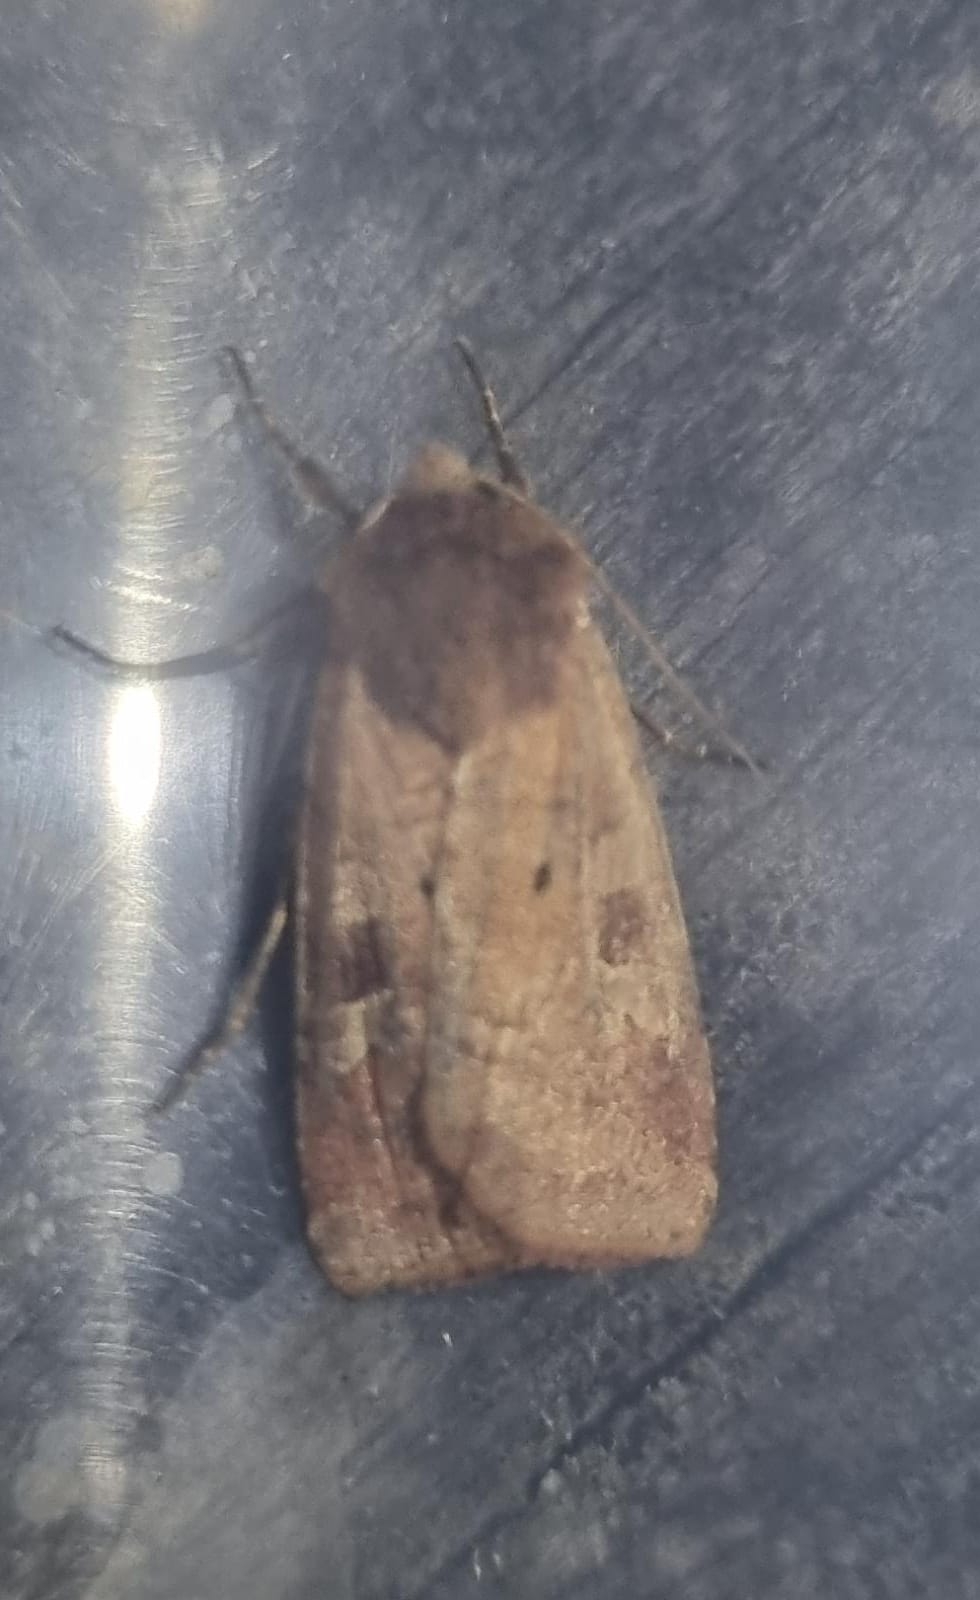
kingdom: Animalia
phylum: Arthropoda
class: Insecta
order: Lepidoptera
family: Noctuidae
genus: Diarsia
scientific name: Diarsia rubi
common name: Small square-spot
